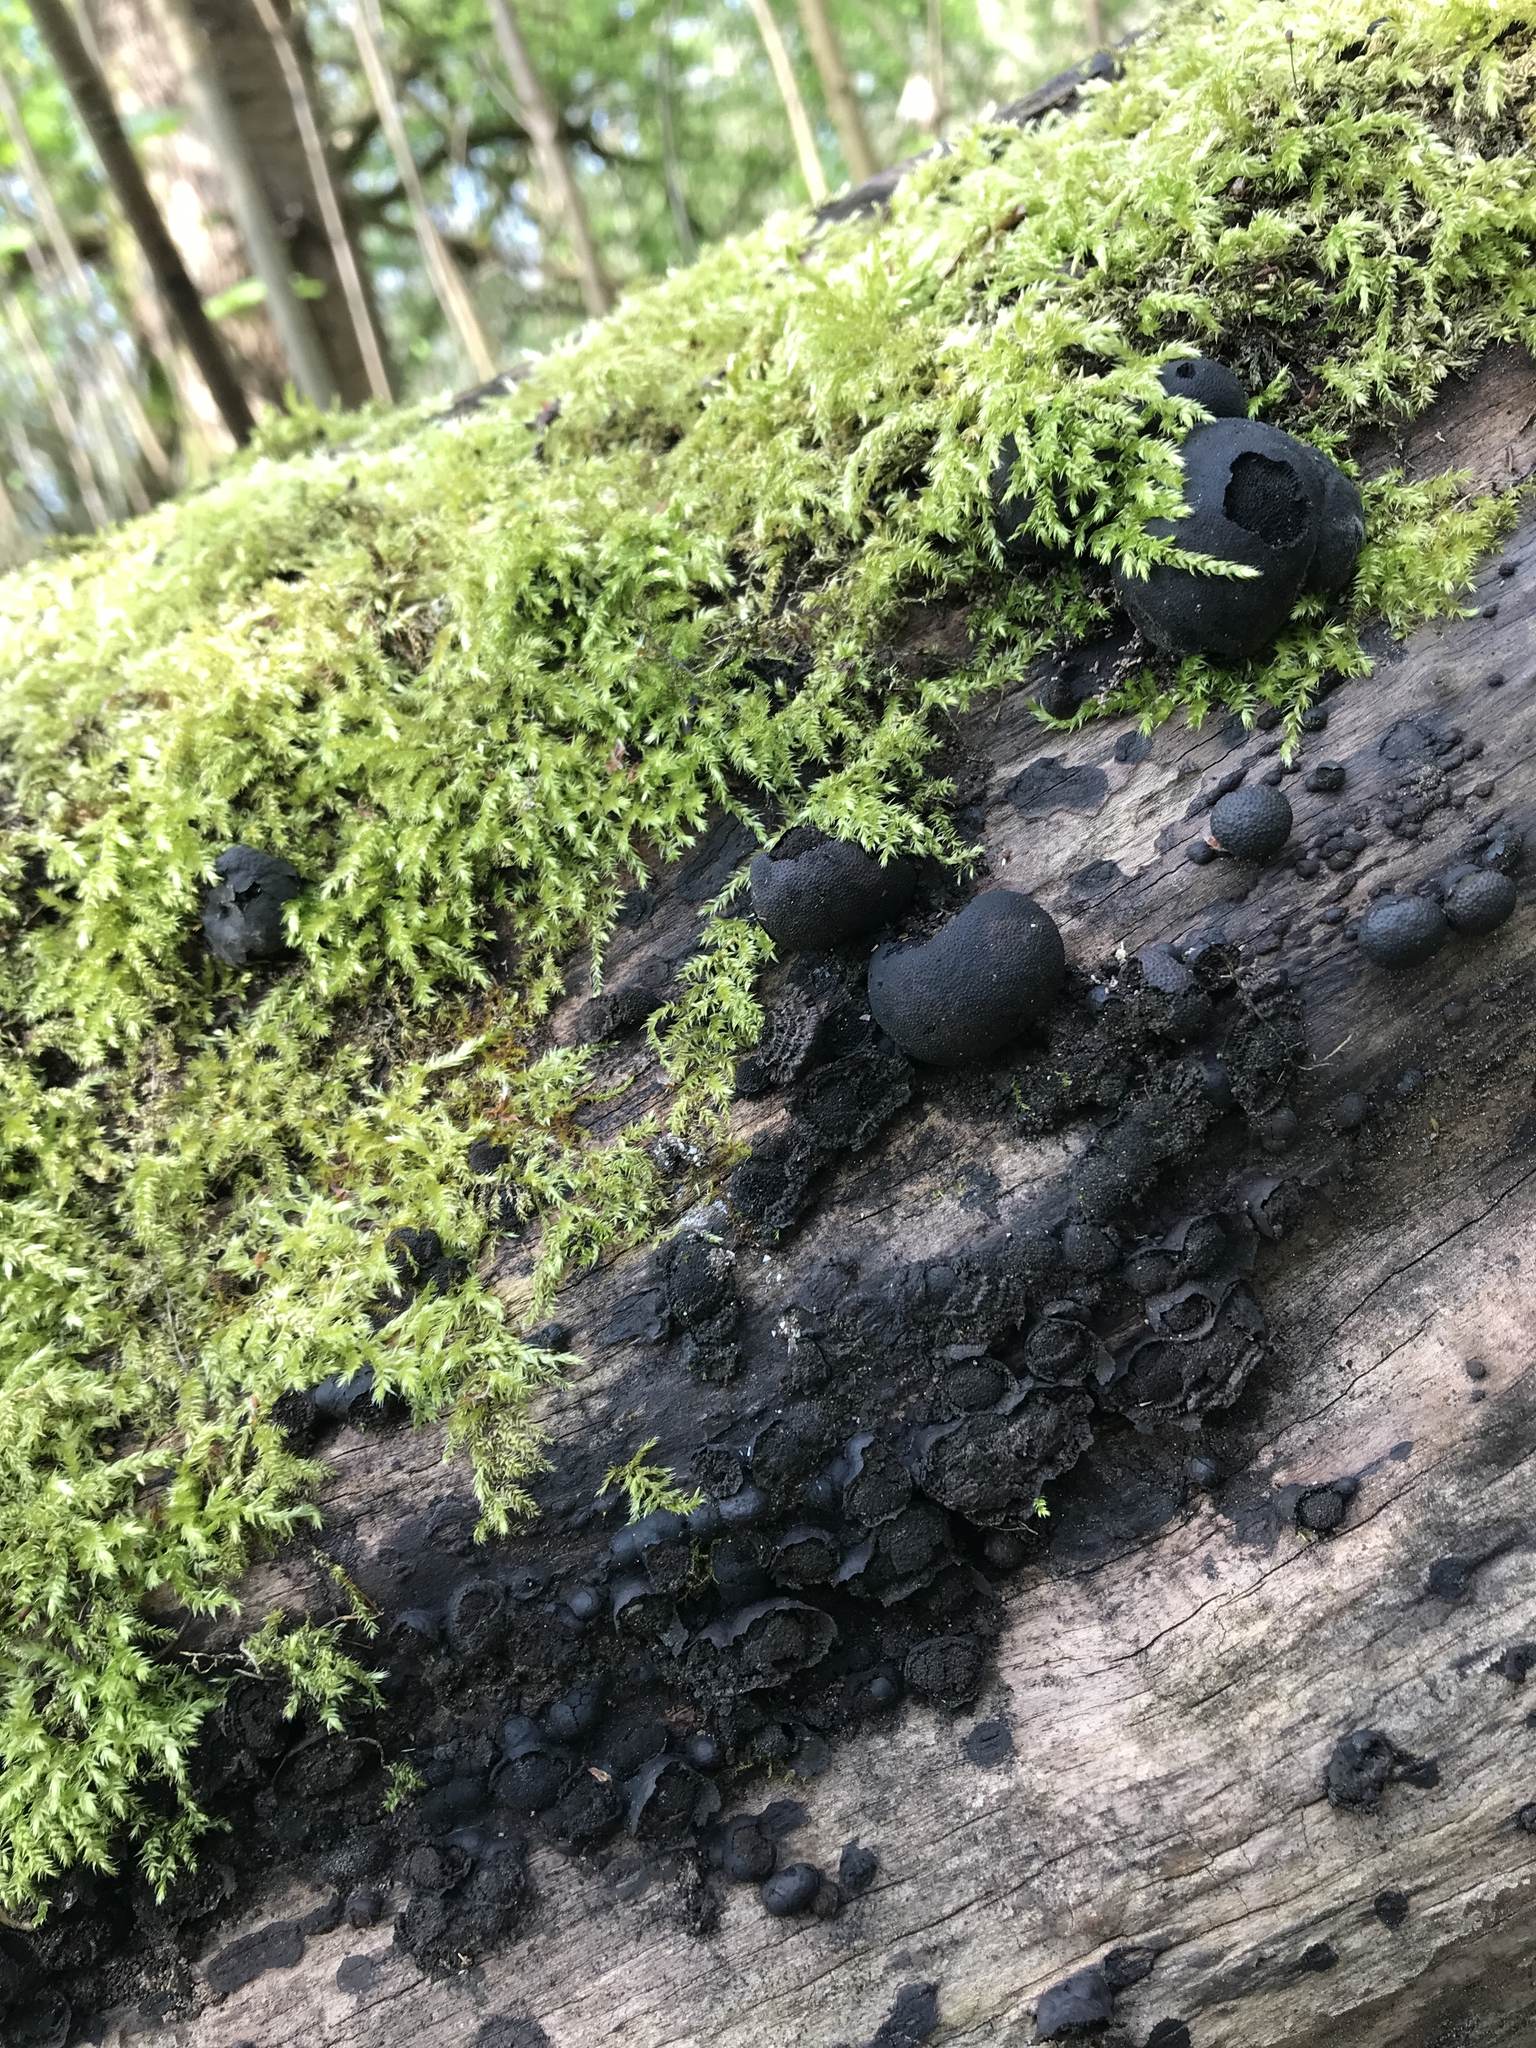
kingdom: Fungi
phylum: Ascomycota
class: Sordariomycetes
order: Xylariales
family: Hypoxylaceae
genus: Annulohypoxylon
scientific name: Annulohypoxylon thouarsianum
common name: Cramp balls
